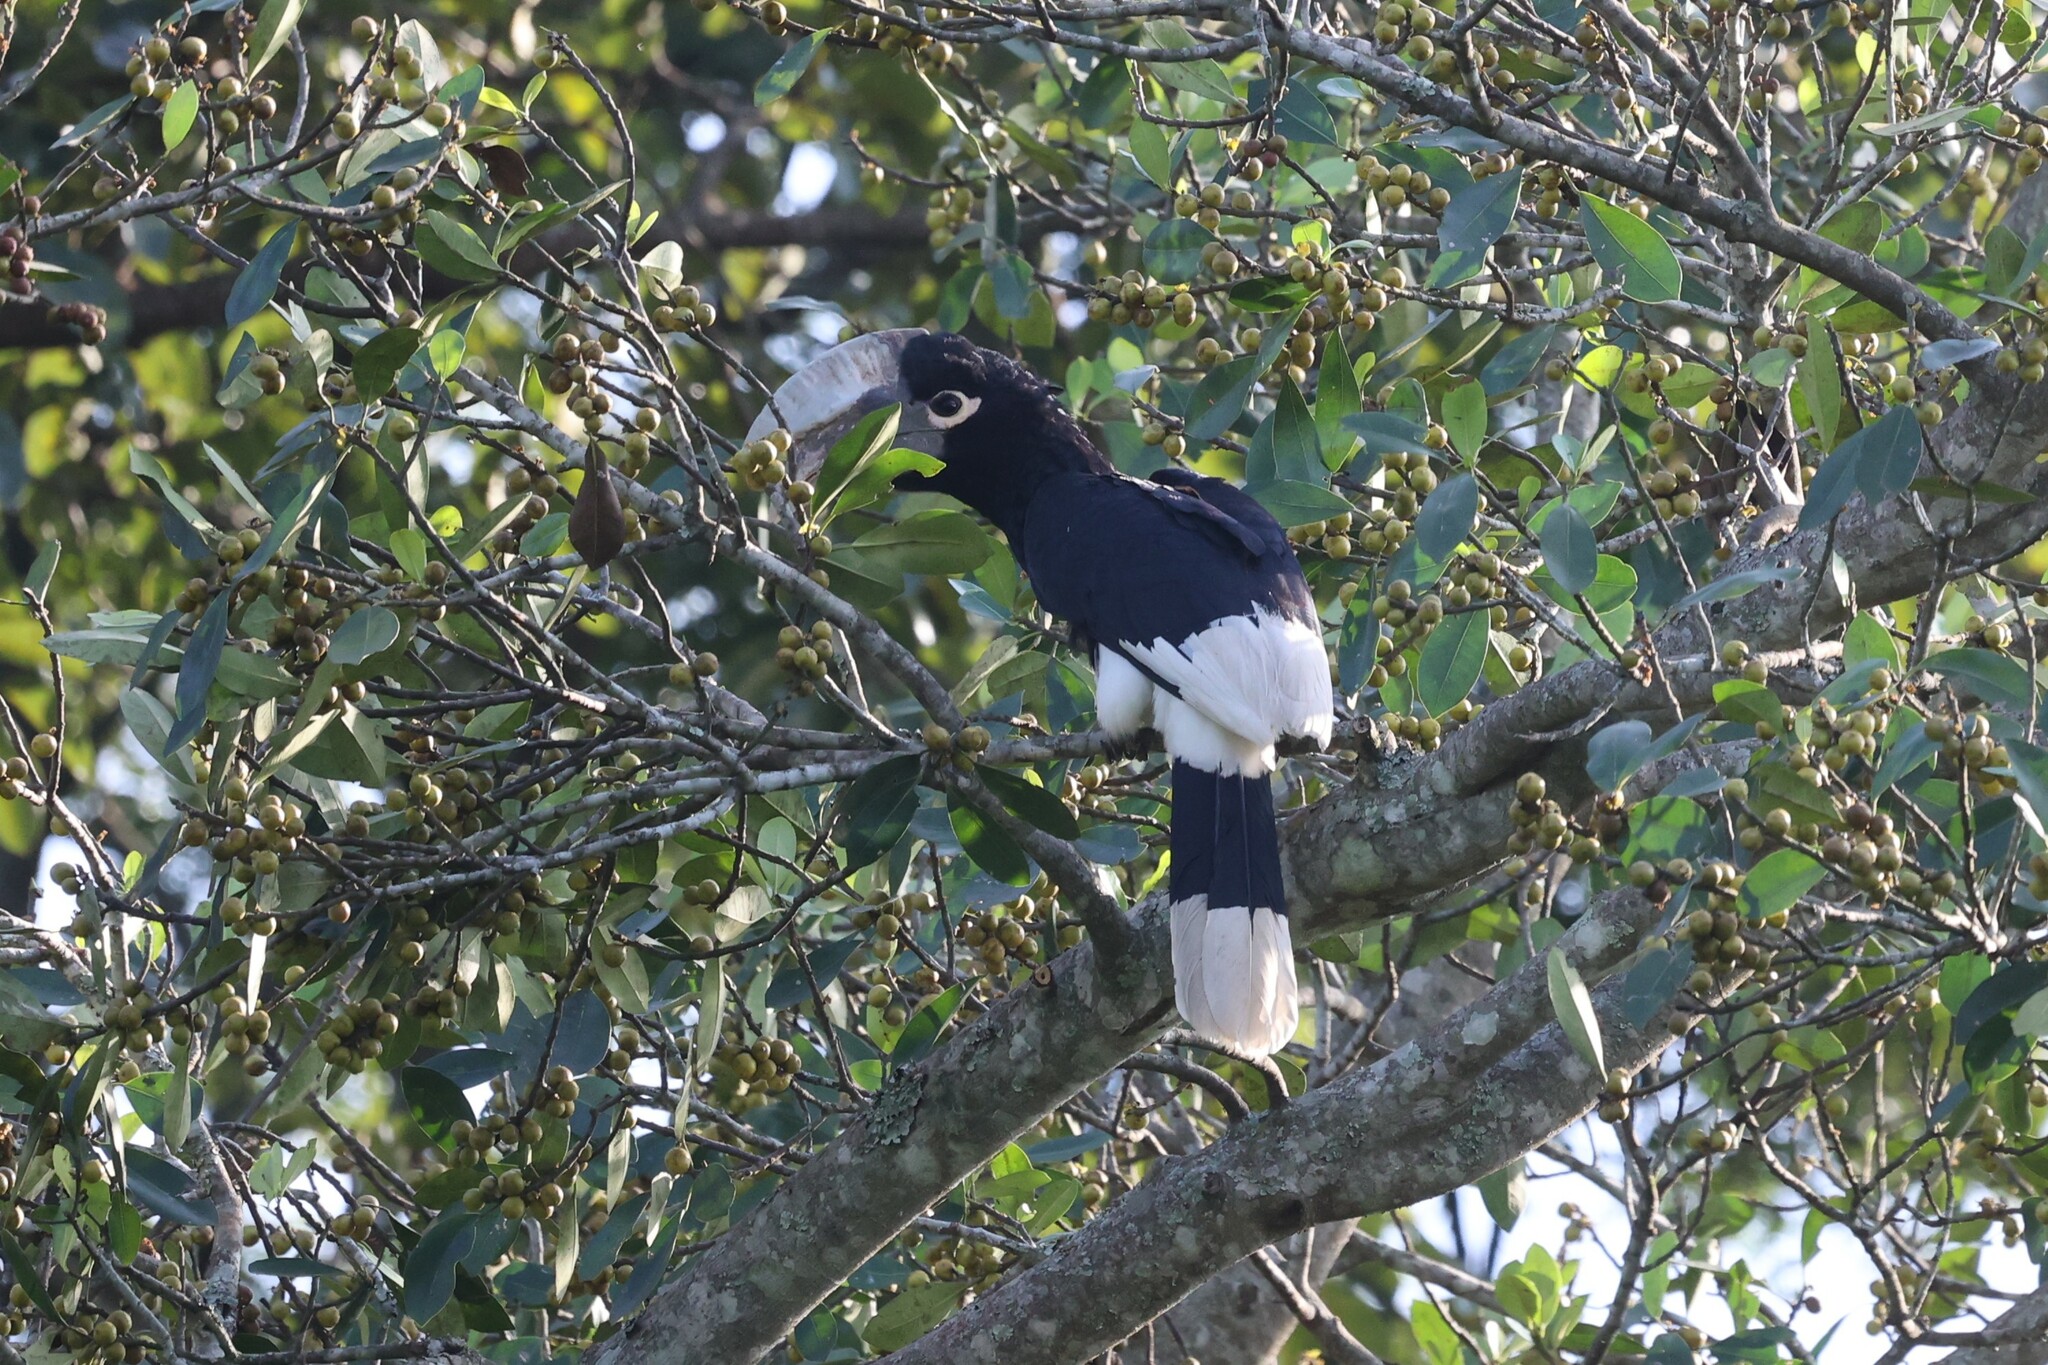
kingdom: Animalia
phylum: Chordata
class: Aves
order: Bucerotiformes
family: Bucerotidae
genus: Bycanistes
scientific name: Bycanistes albotibialis
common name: White-thighed hornbill
